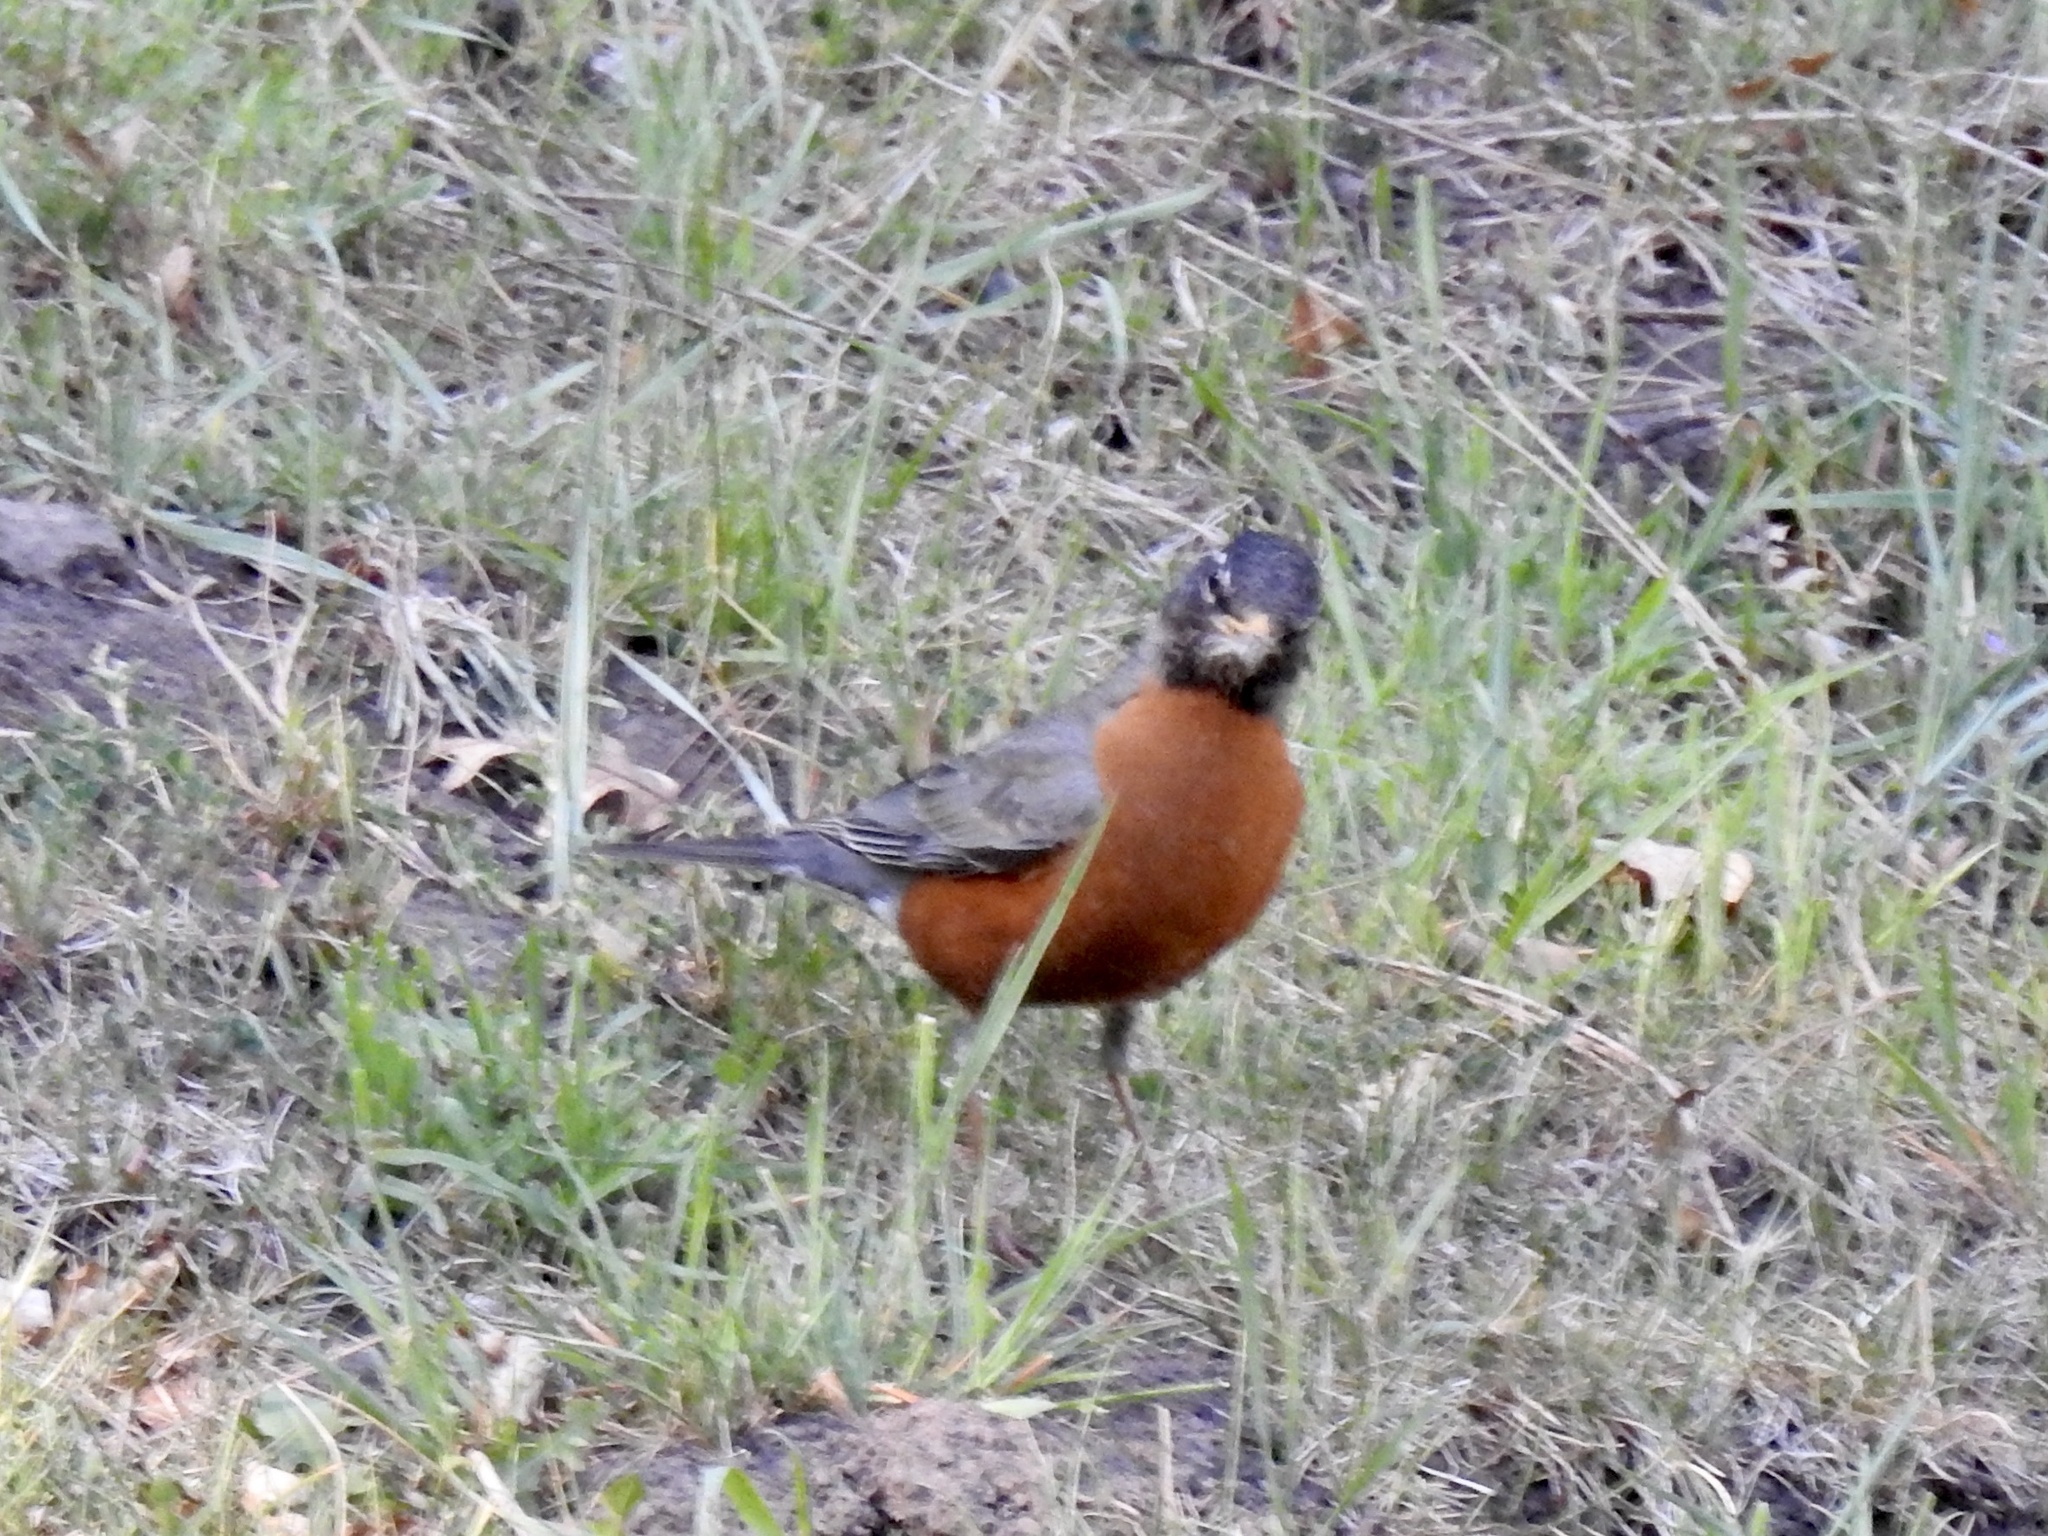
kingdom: Animalia
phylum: Chordata
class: Aves
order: Passeriformes
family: Turdidae
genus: Turdus
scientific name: Turdus migratorius
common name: American robin
